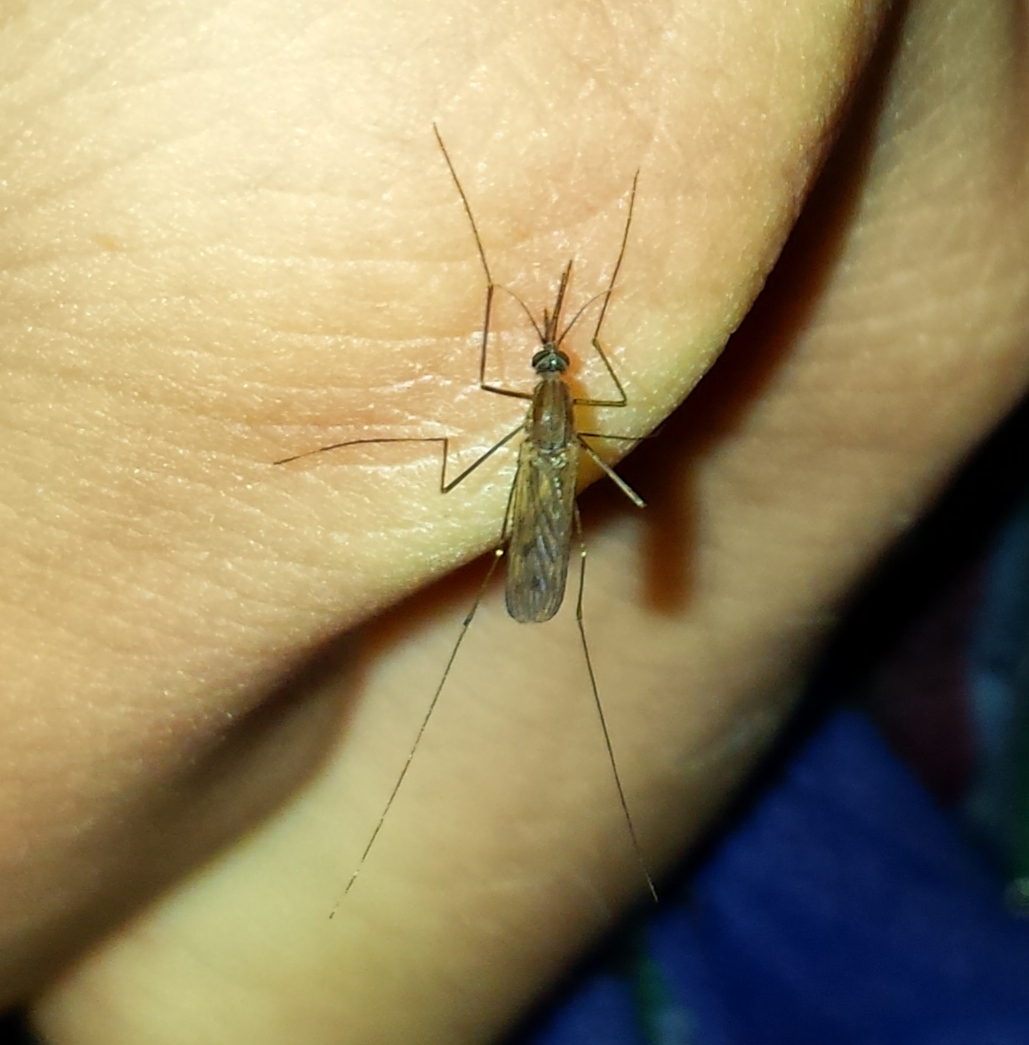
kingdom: Animalia
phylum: Arthropoda
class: Insecta
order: Diptera
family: Culicidae
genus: Anopheles
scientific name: Anopheles quadrimaculatus
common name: Common malaria mosquito
